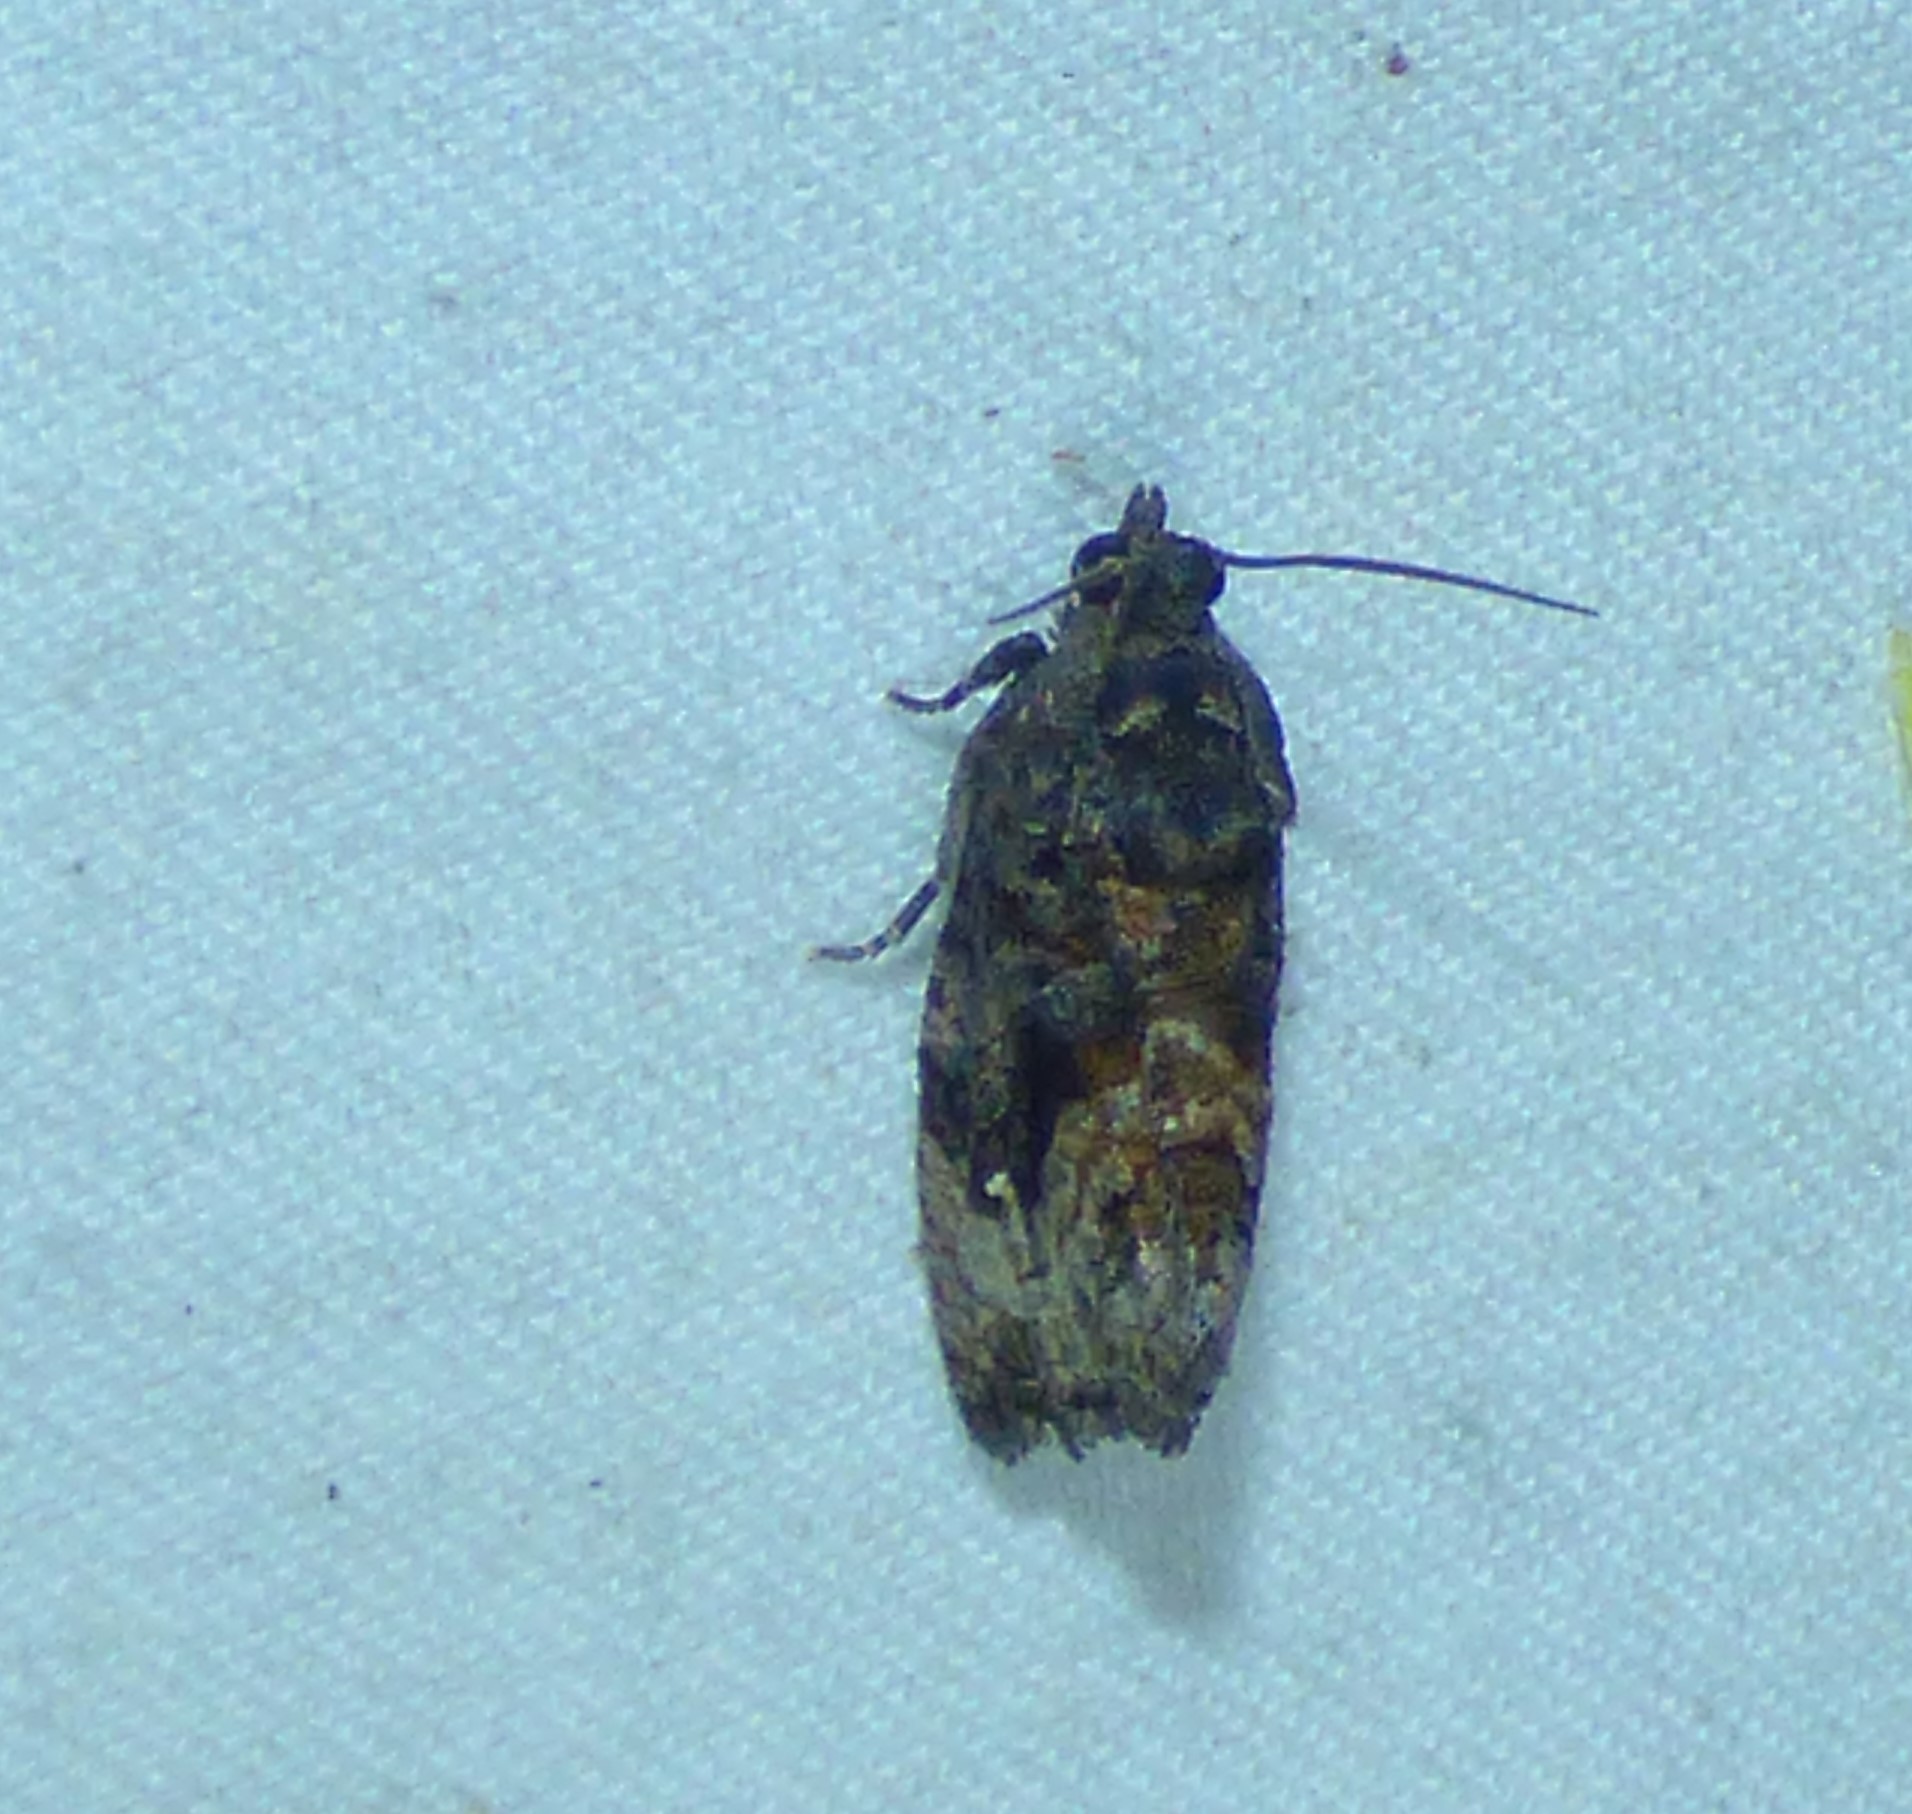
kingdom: Animalia
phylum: Arthropoda
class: Insecta
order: Lepidoptera
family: Tortricidae
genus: Gymnandrosoma
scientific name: Gymnandrosoma punctidiscanum
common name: Dotted ecdytolopha moth
